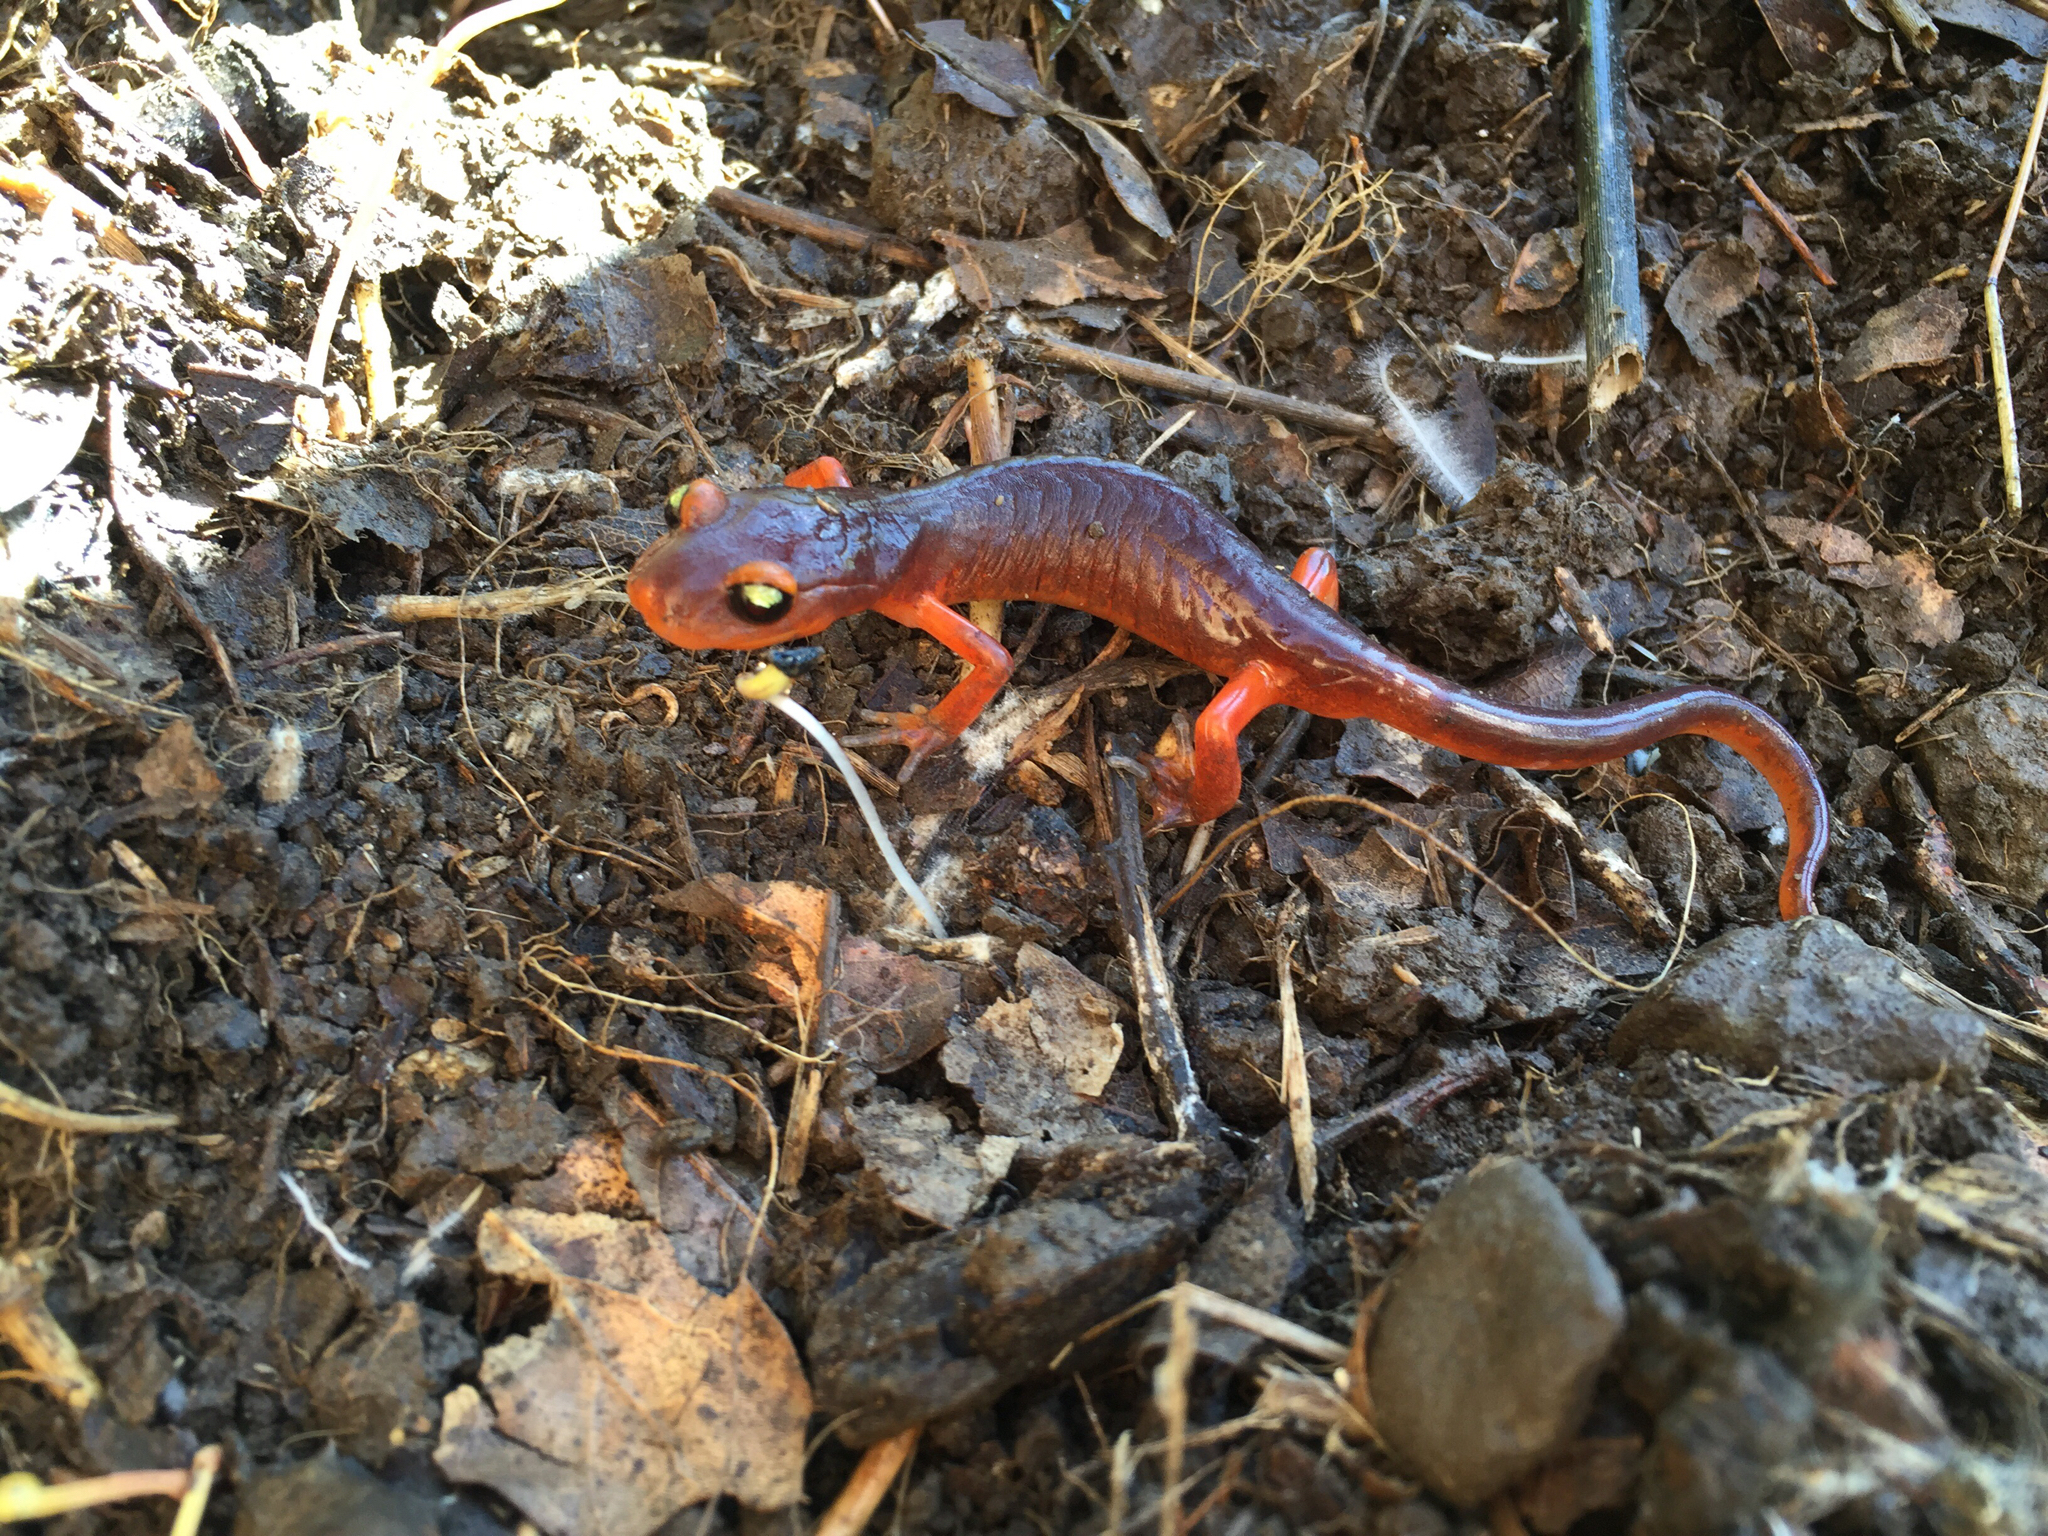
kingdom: Animalia
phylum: Chordata
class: Amphibia
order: Caudata
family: Plethodontidae
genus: Ensatina
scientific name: Ensatina eschscholtzii
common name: Ensatina
